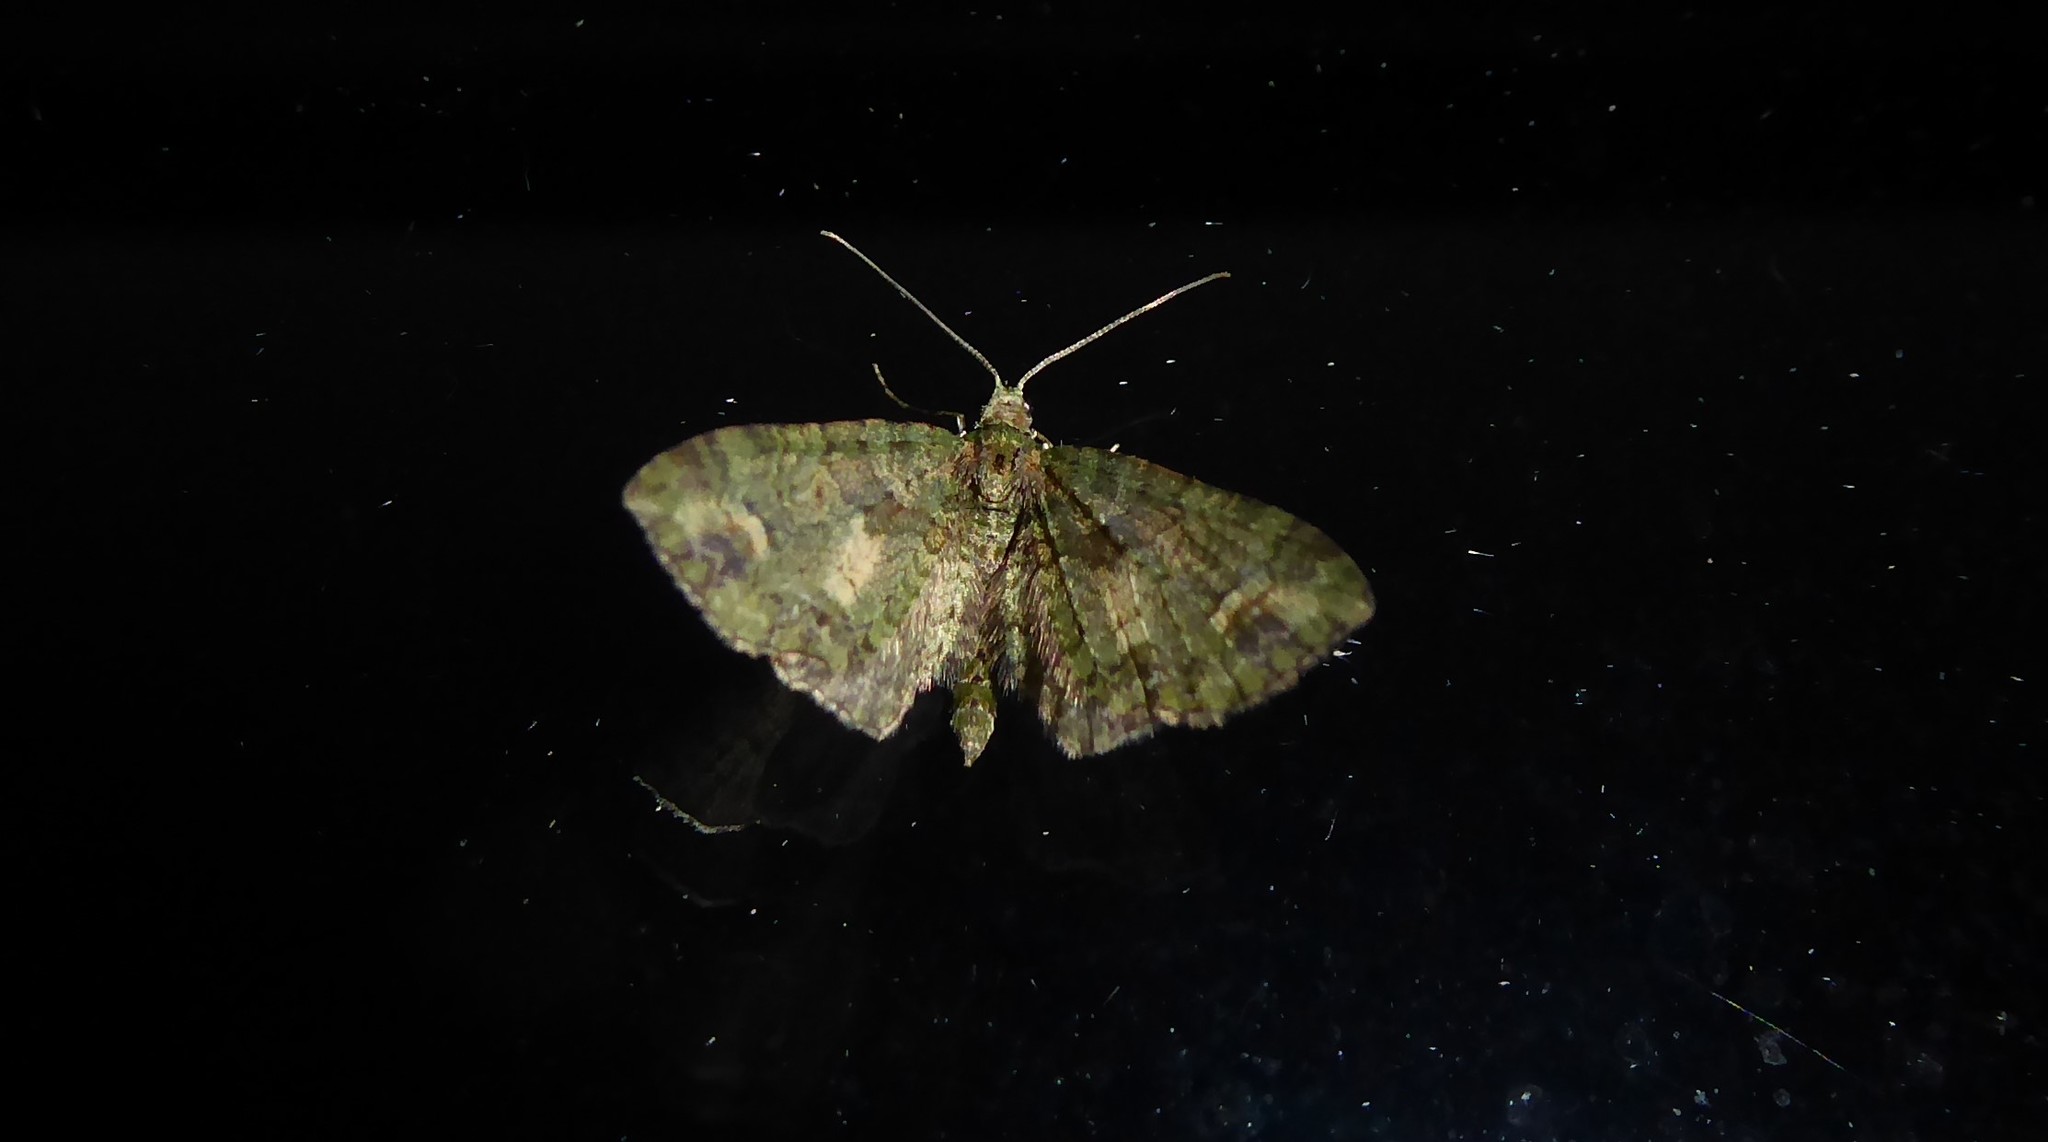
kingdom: Animalia
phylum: Arthropoda
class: Insecta
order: Lepidoptera
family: Geometridae
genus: Idaea
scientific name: Idaea mutanda
